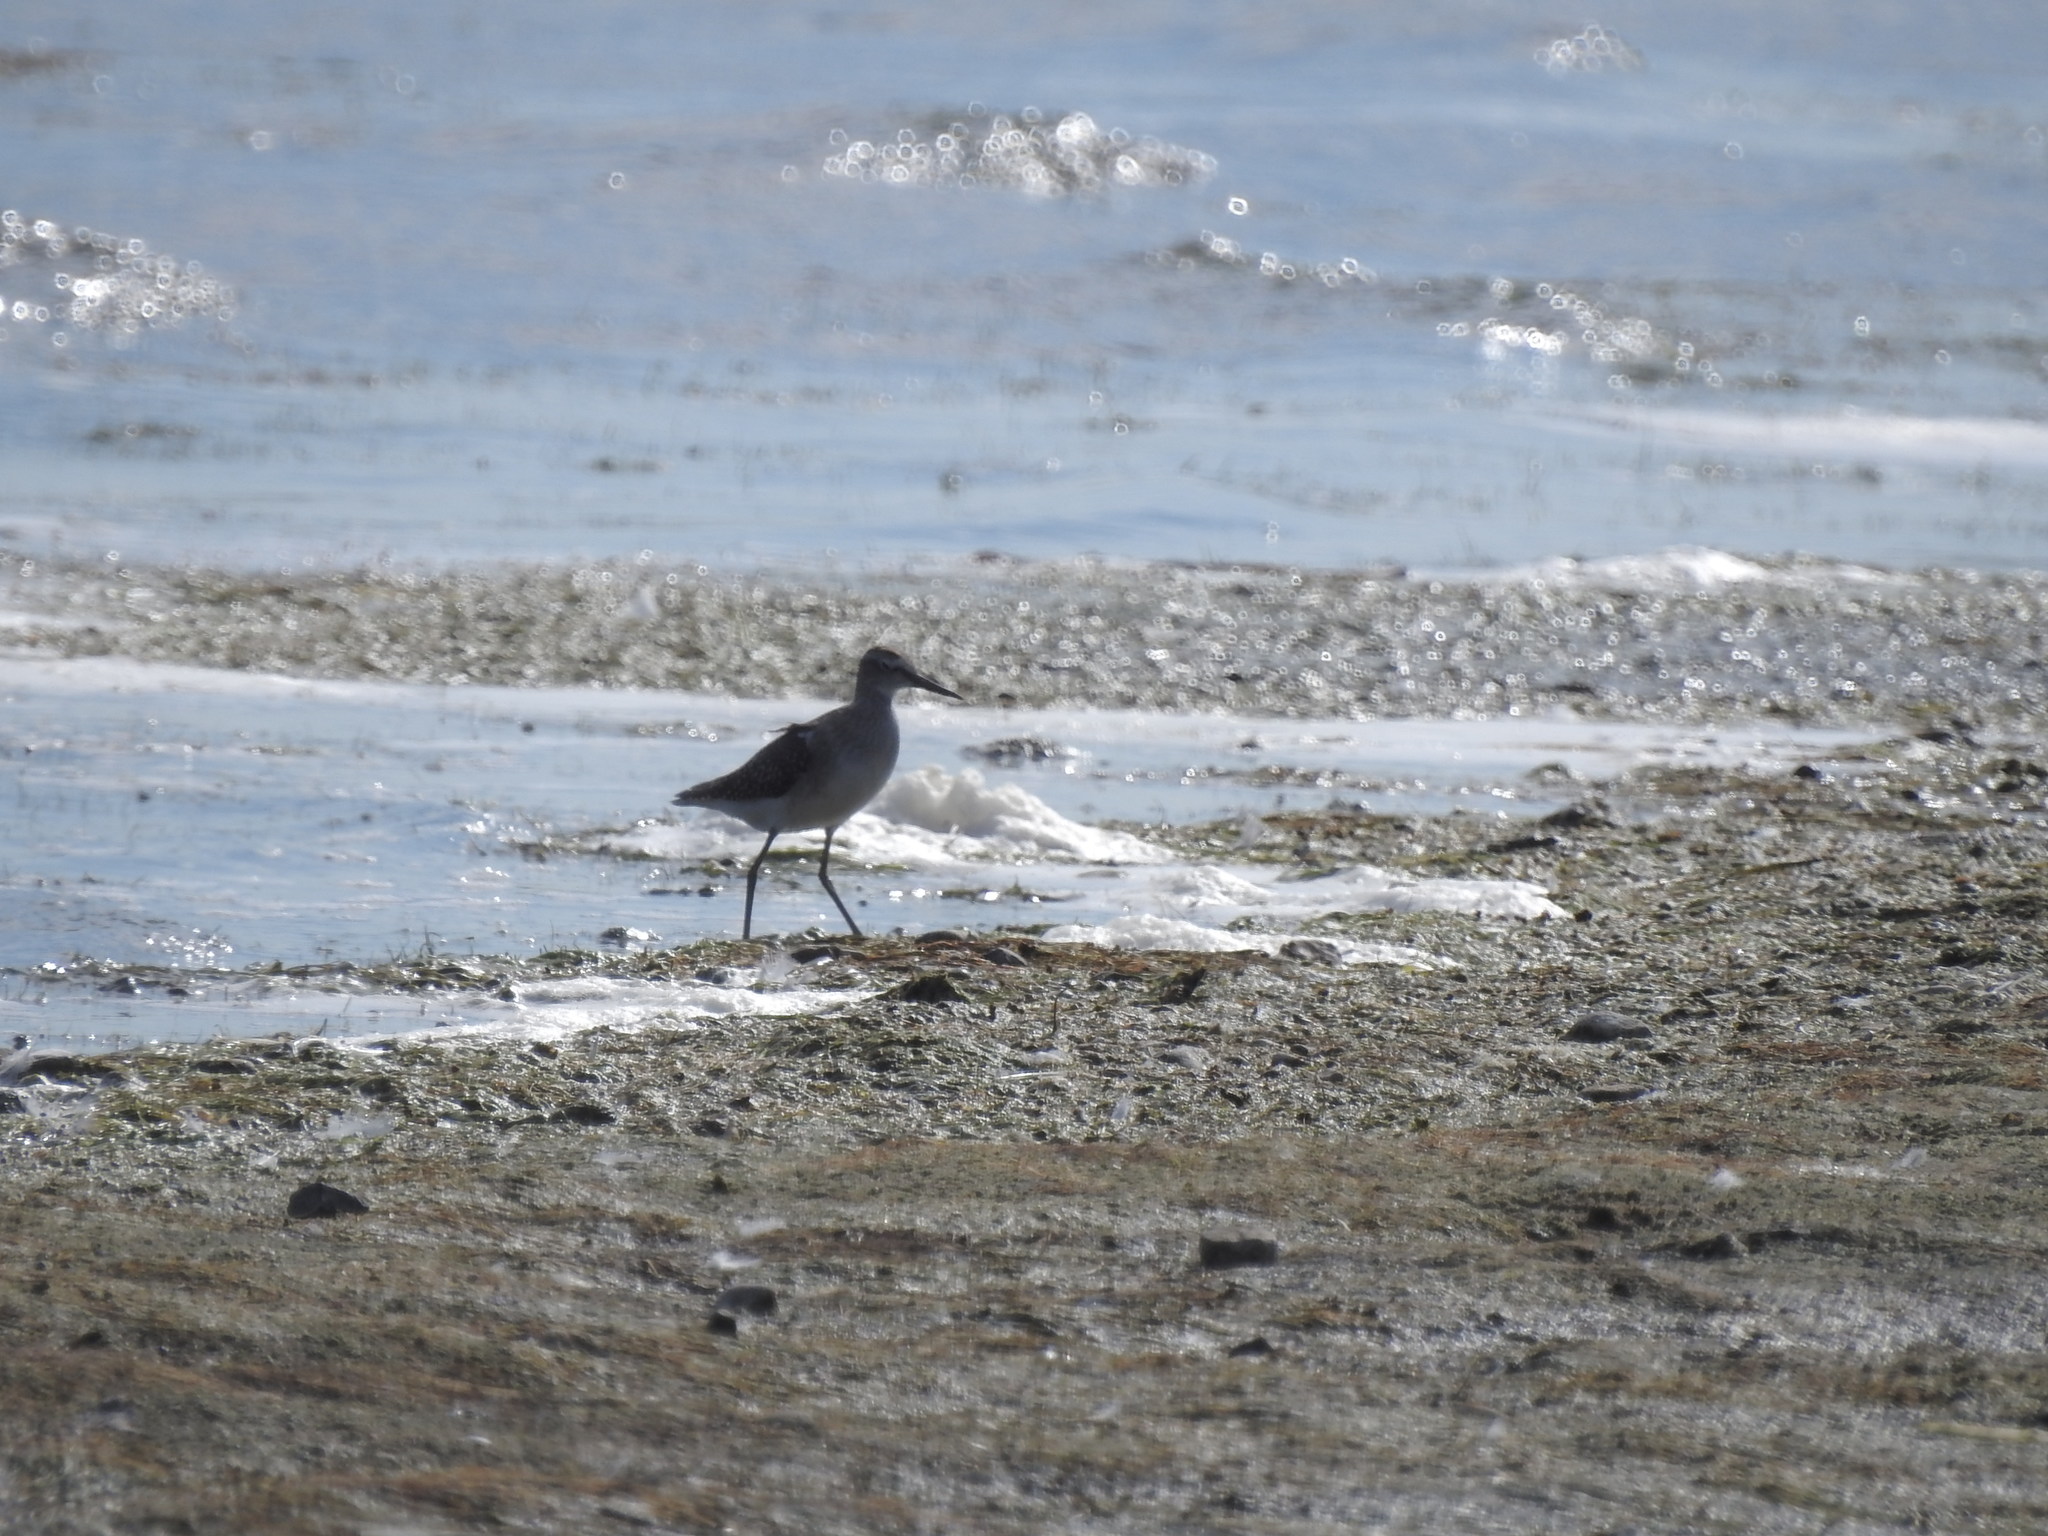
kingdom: Animalia
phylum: Chordata
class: Aves
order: Charadriiformes
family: Scolopacidae
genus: Tringa
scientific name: Tringa glareola
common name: Wood sandpiper
